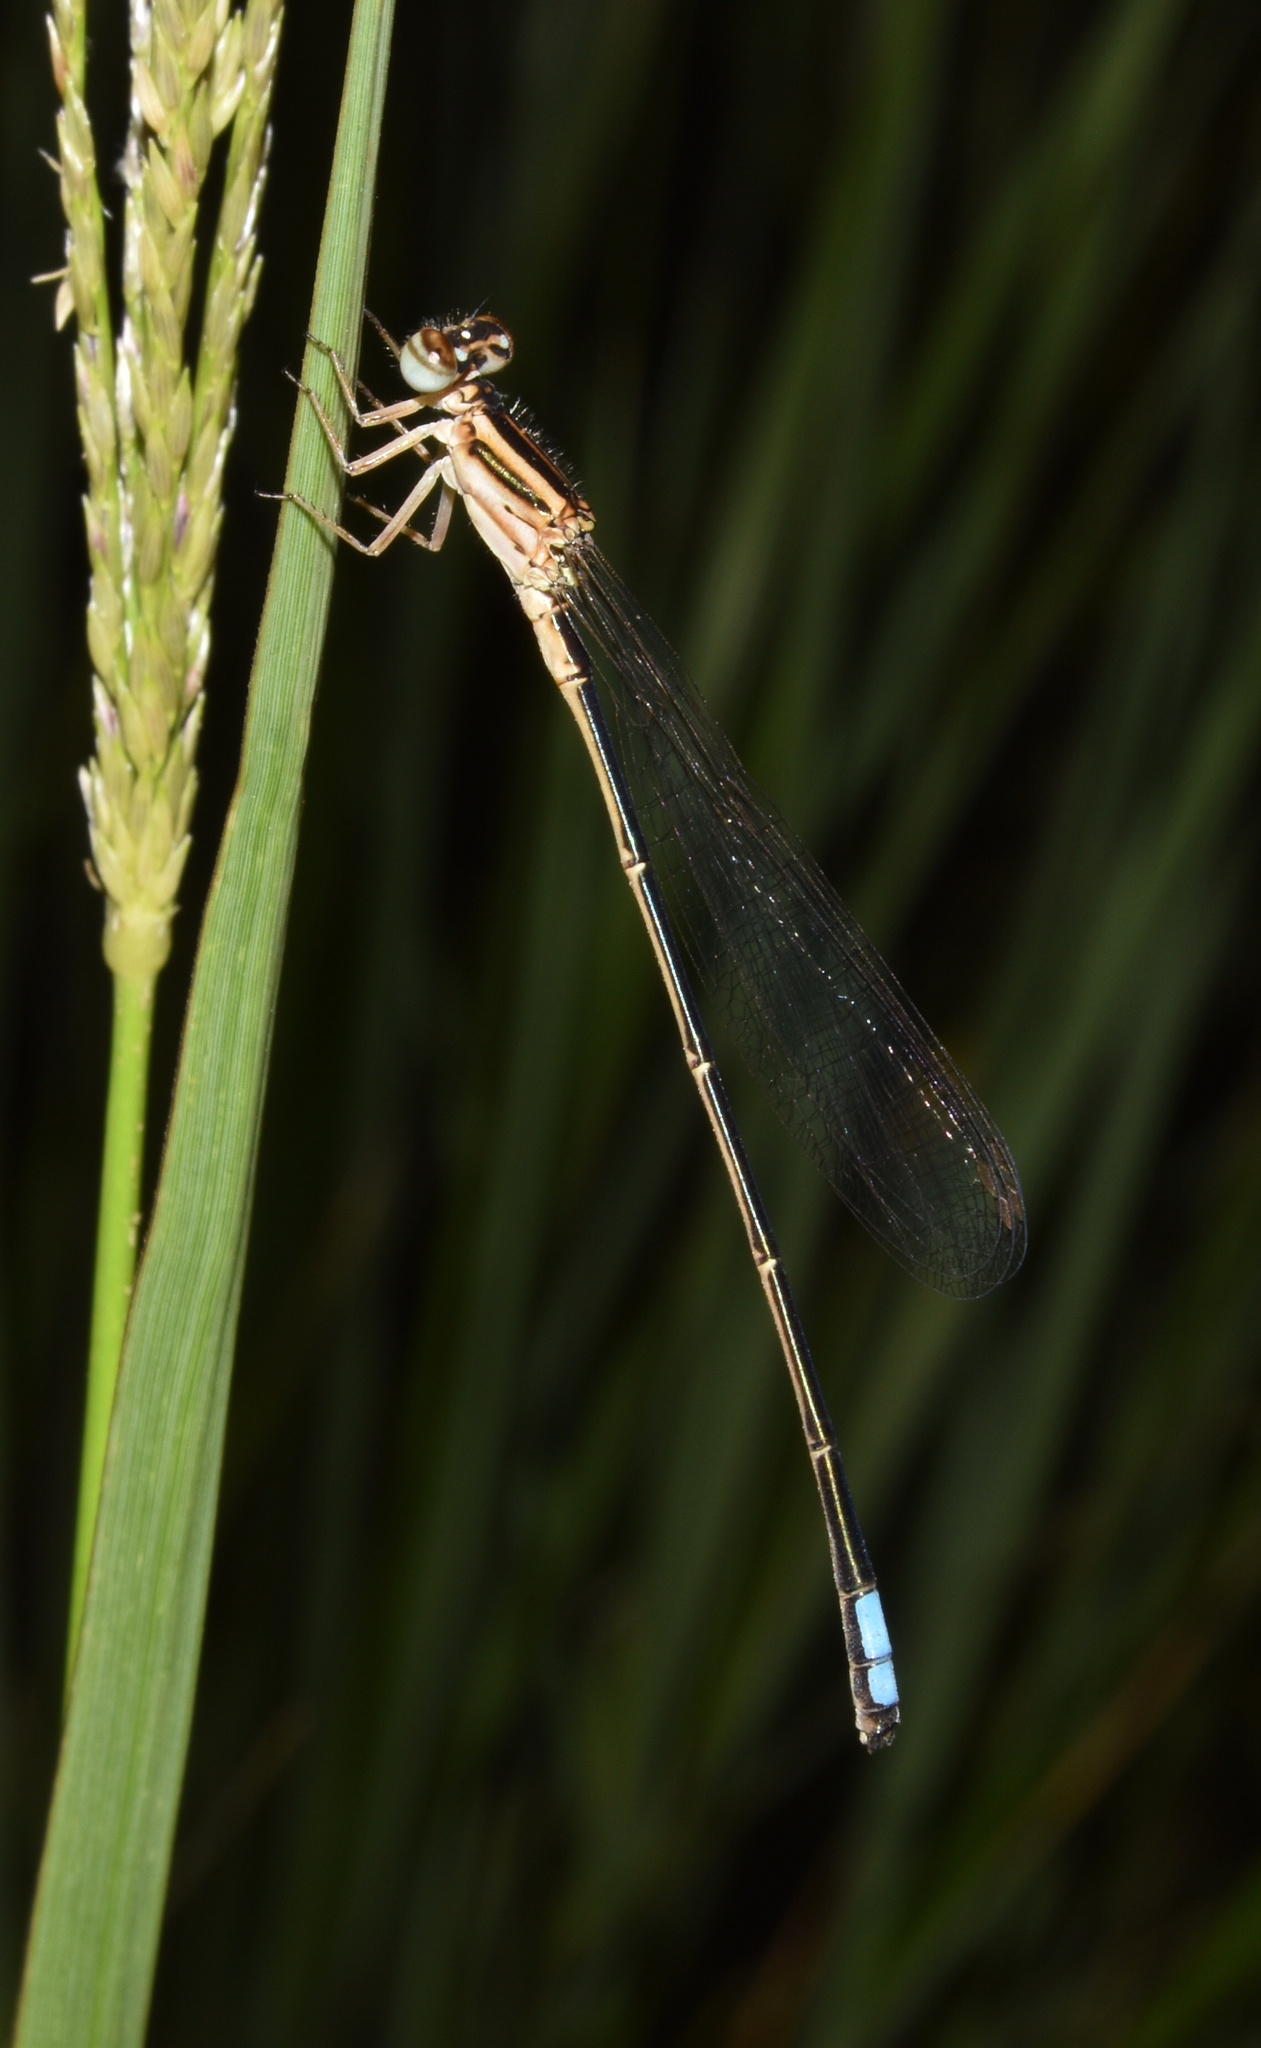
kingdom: Animalia
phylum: Arthropoda
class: Insecta
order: Odonata
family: Coenagrionidae
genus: Pseudagrion
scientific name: Pseudagrion kersteni
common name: Powder-faced sprite
